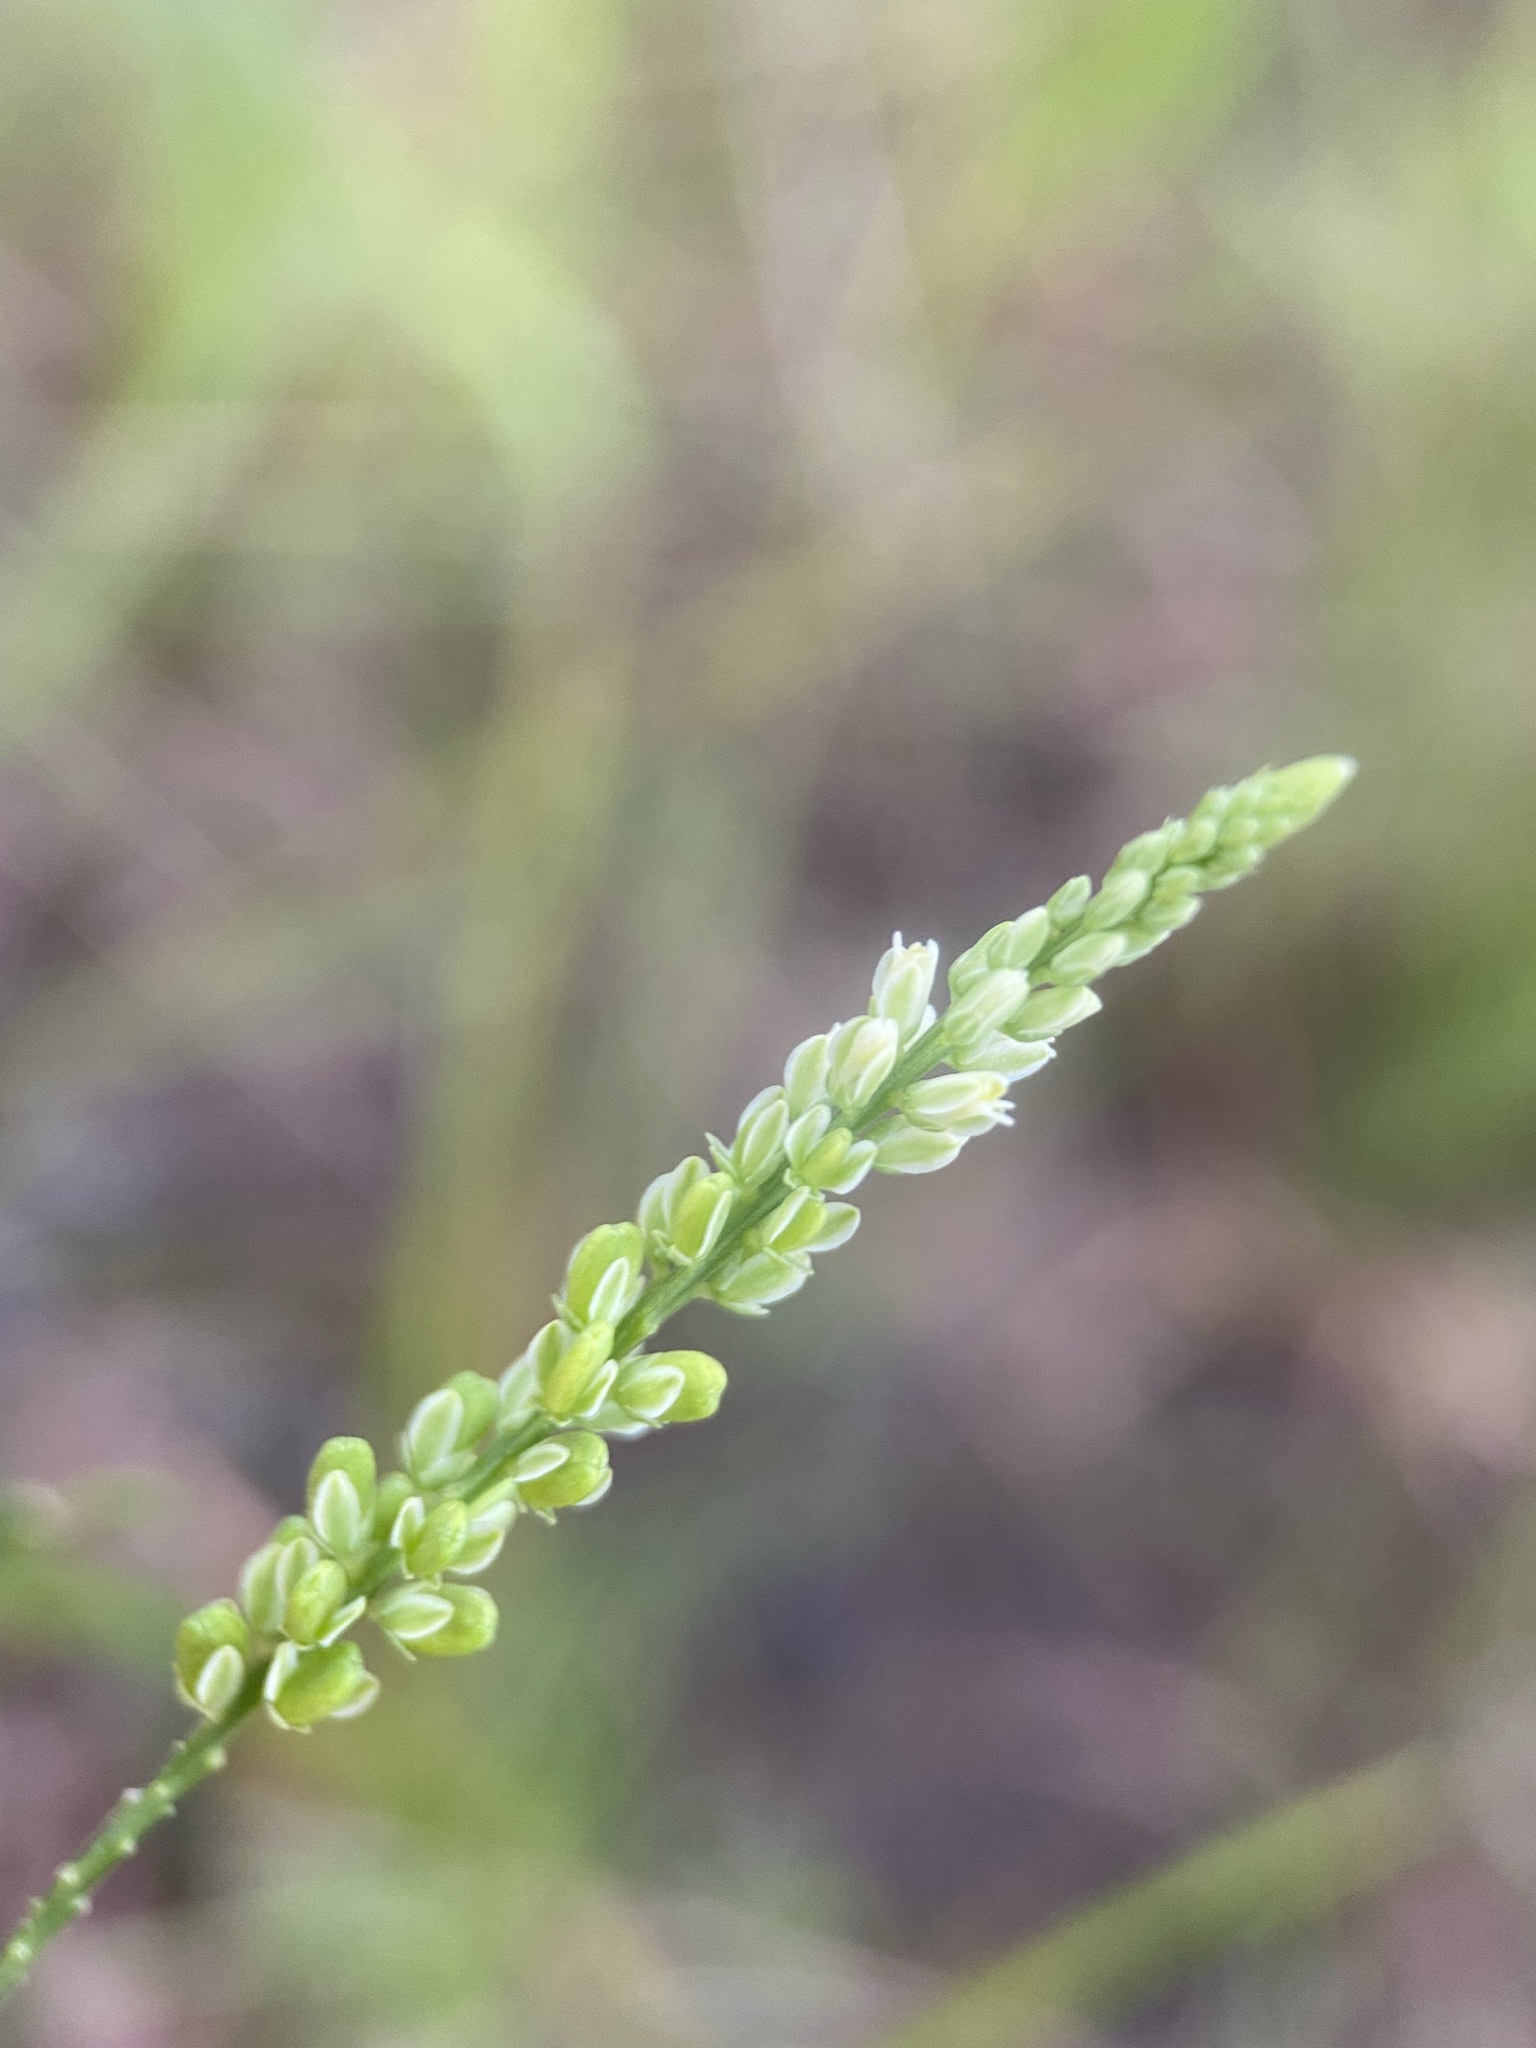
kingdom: Plantae
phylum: Tracheophyta
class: Magnoliopsida
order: Fabales
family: Polygalaceae
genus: Polygala
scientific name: Polygala leptostachys
